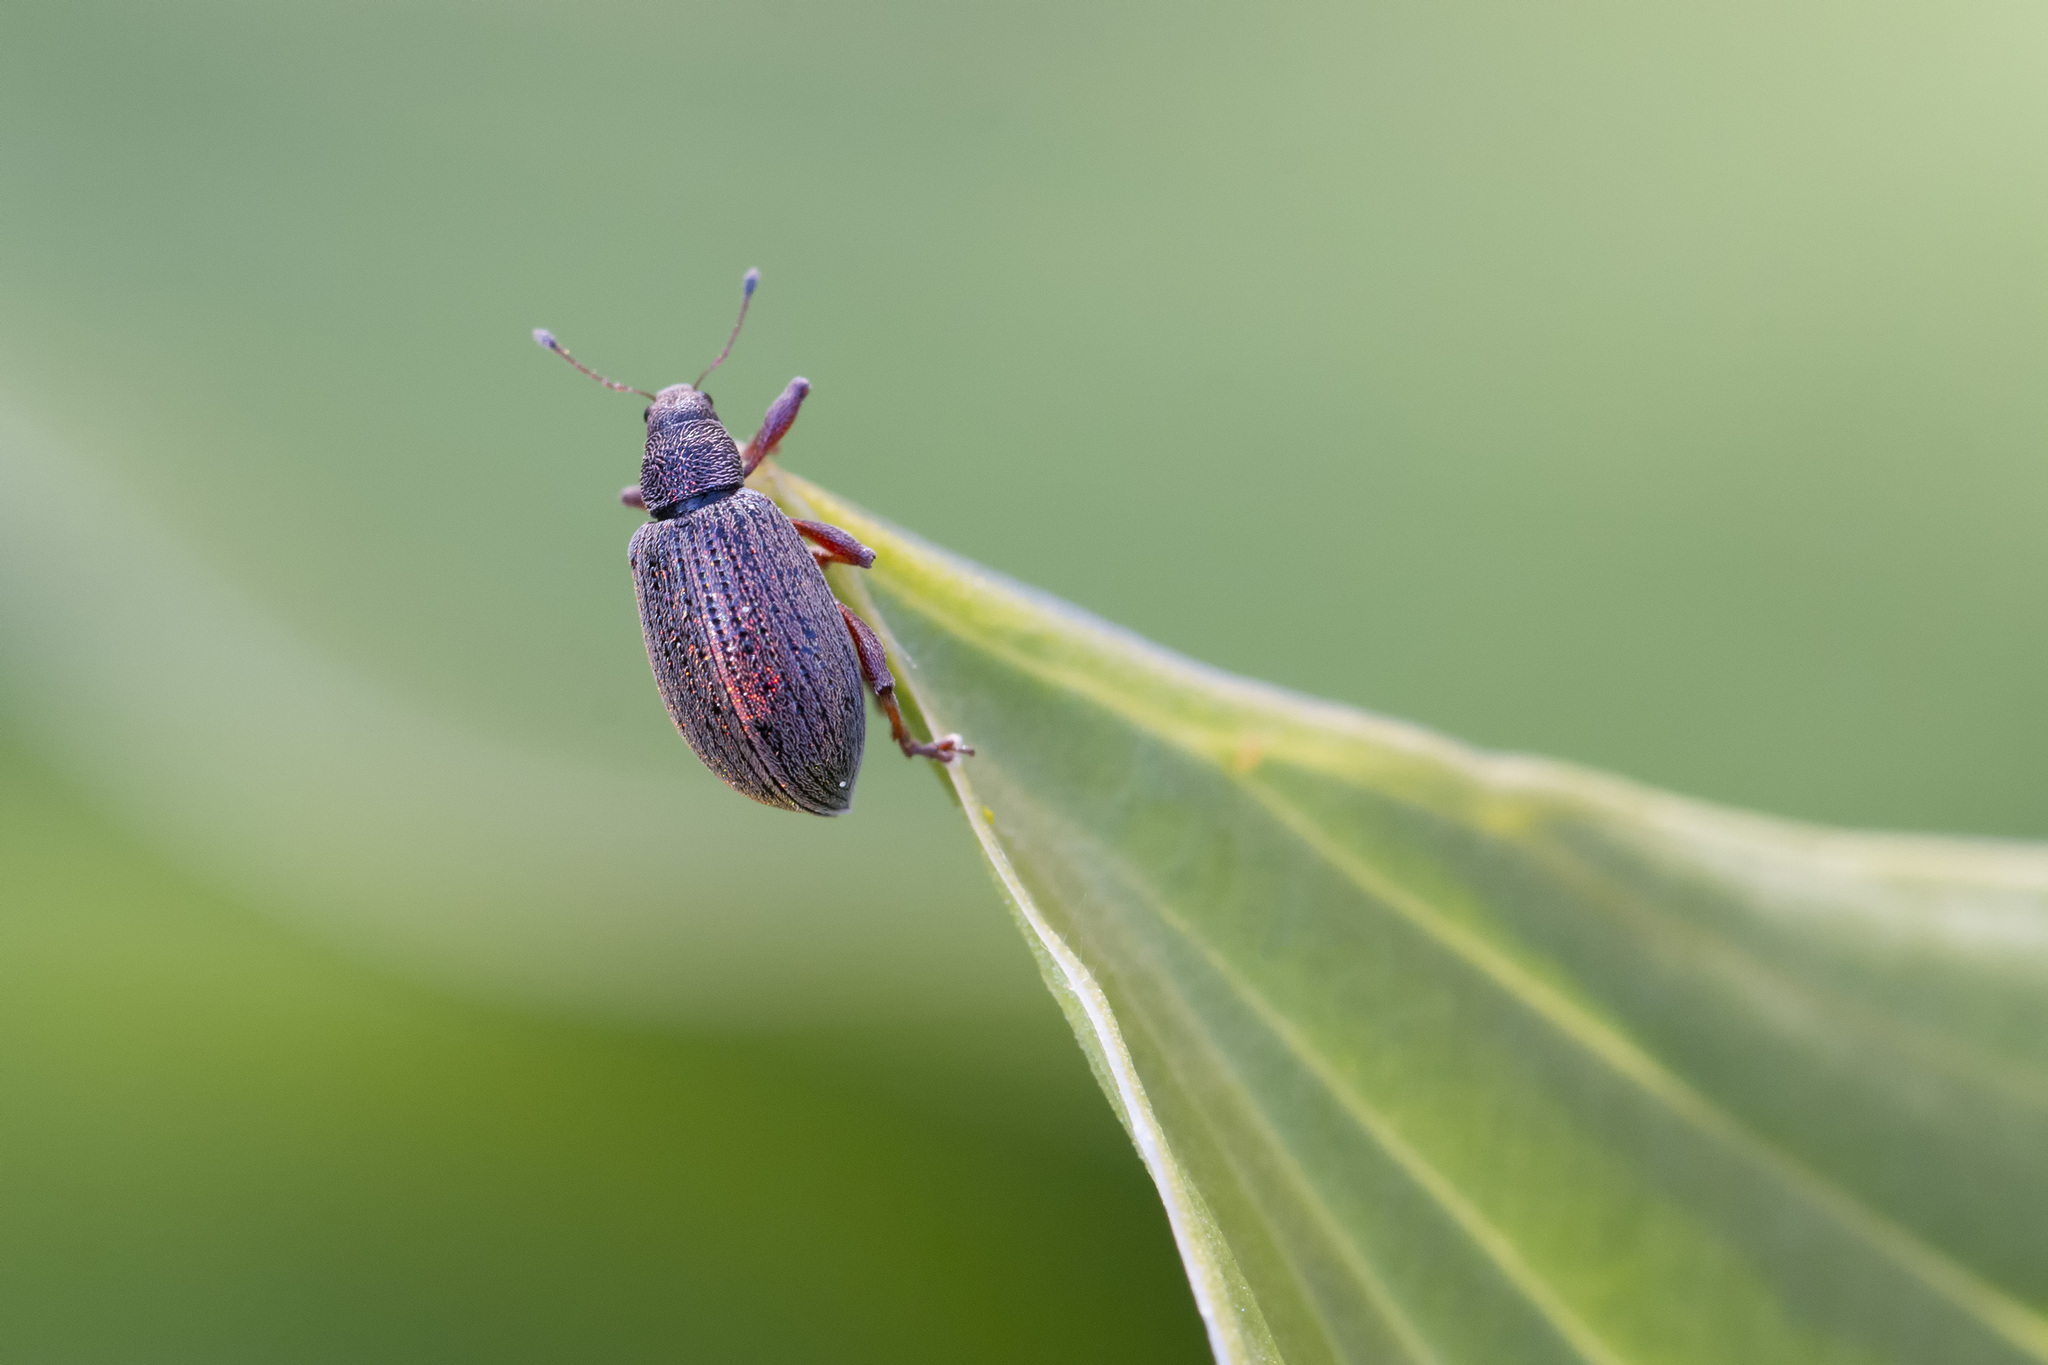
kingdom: Animalia
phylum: Arthropoda
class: Insecta
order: Coleoptera
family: Curculionidae
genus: Polydrusus
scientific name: Polydrusus mollis
